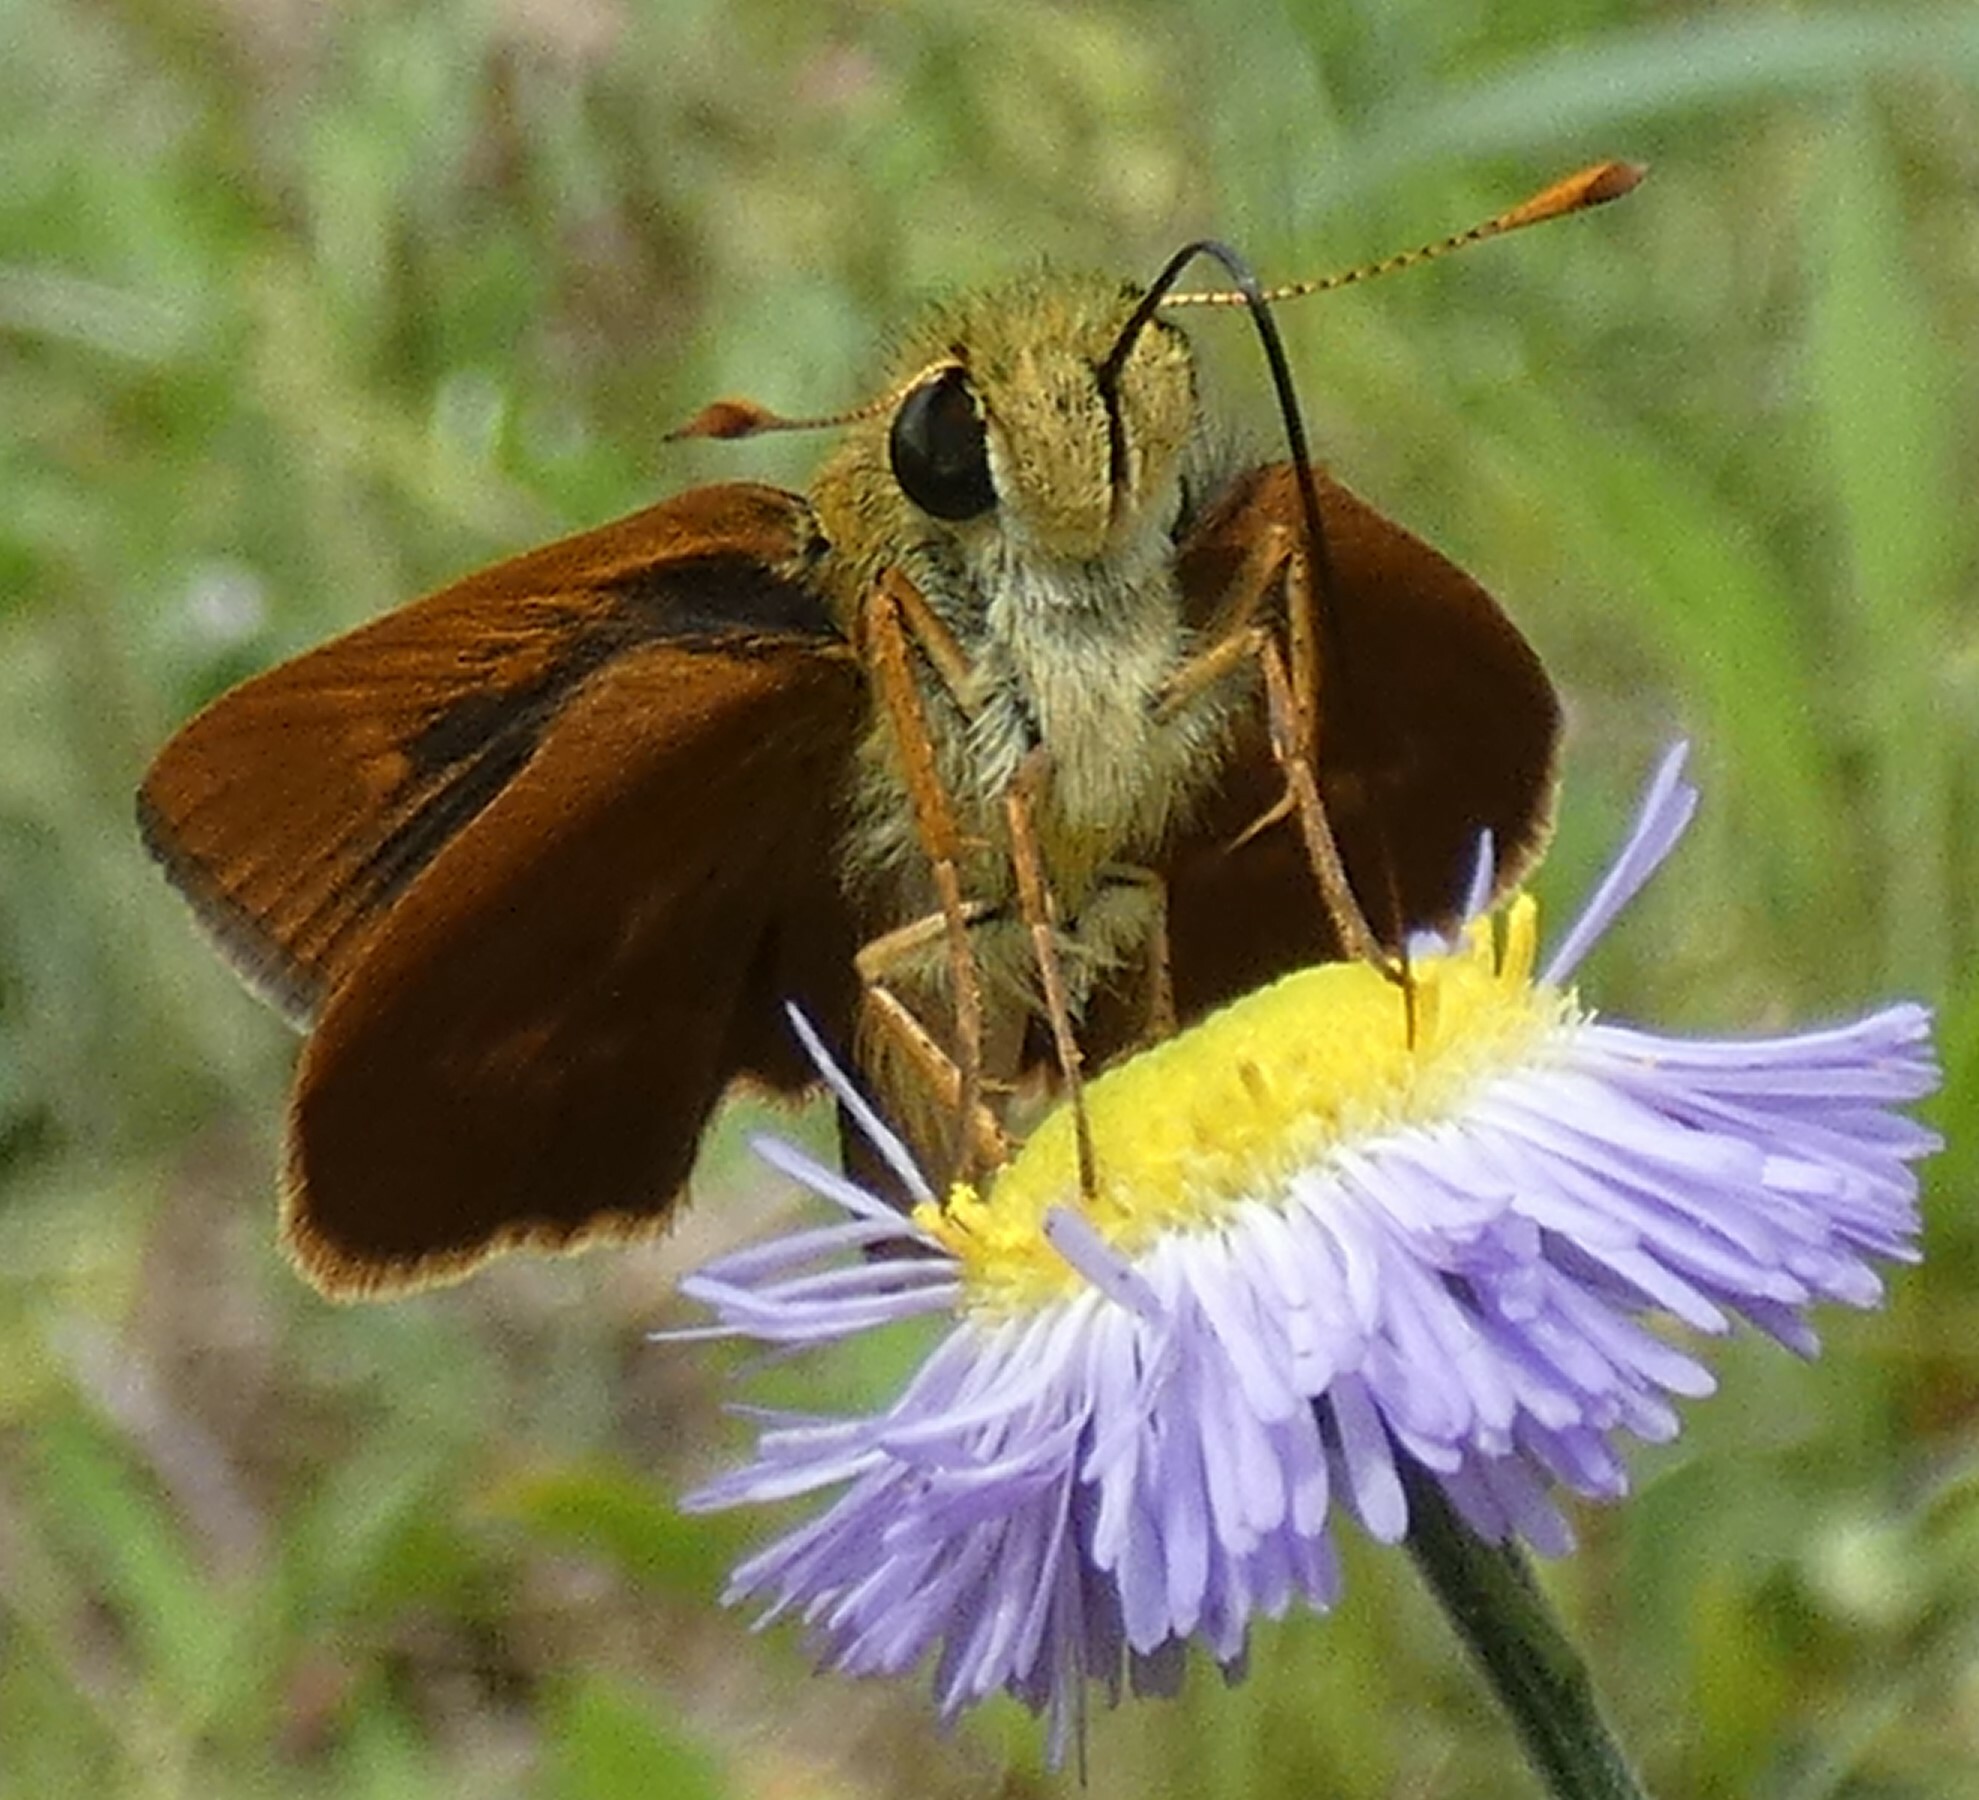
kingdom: Animalia
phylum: Arthropoda
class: Insecta
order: Lepidoptera
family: Hesperiidae
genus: Polites
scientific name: Polites otho
